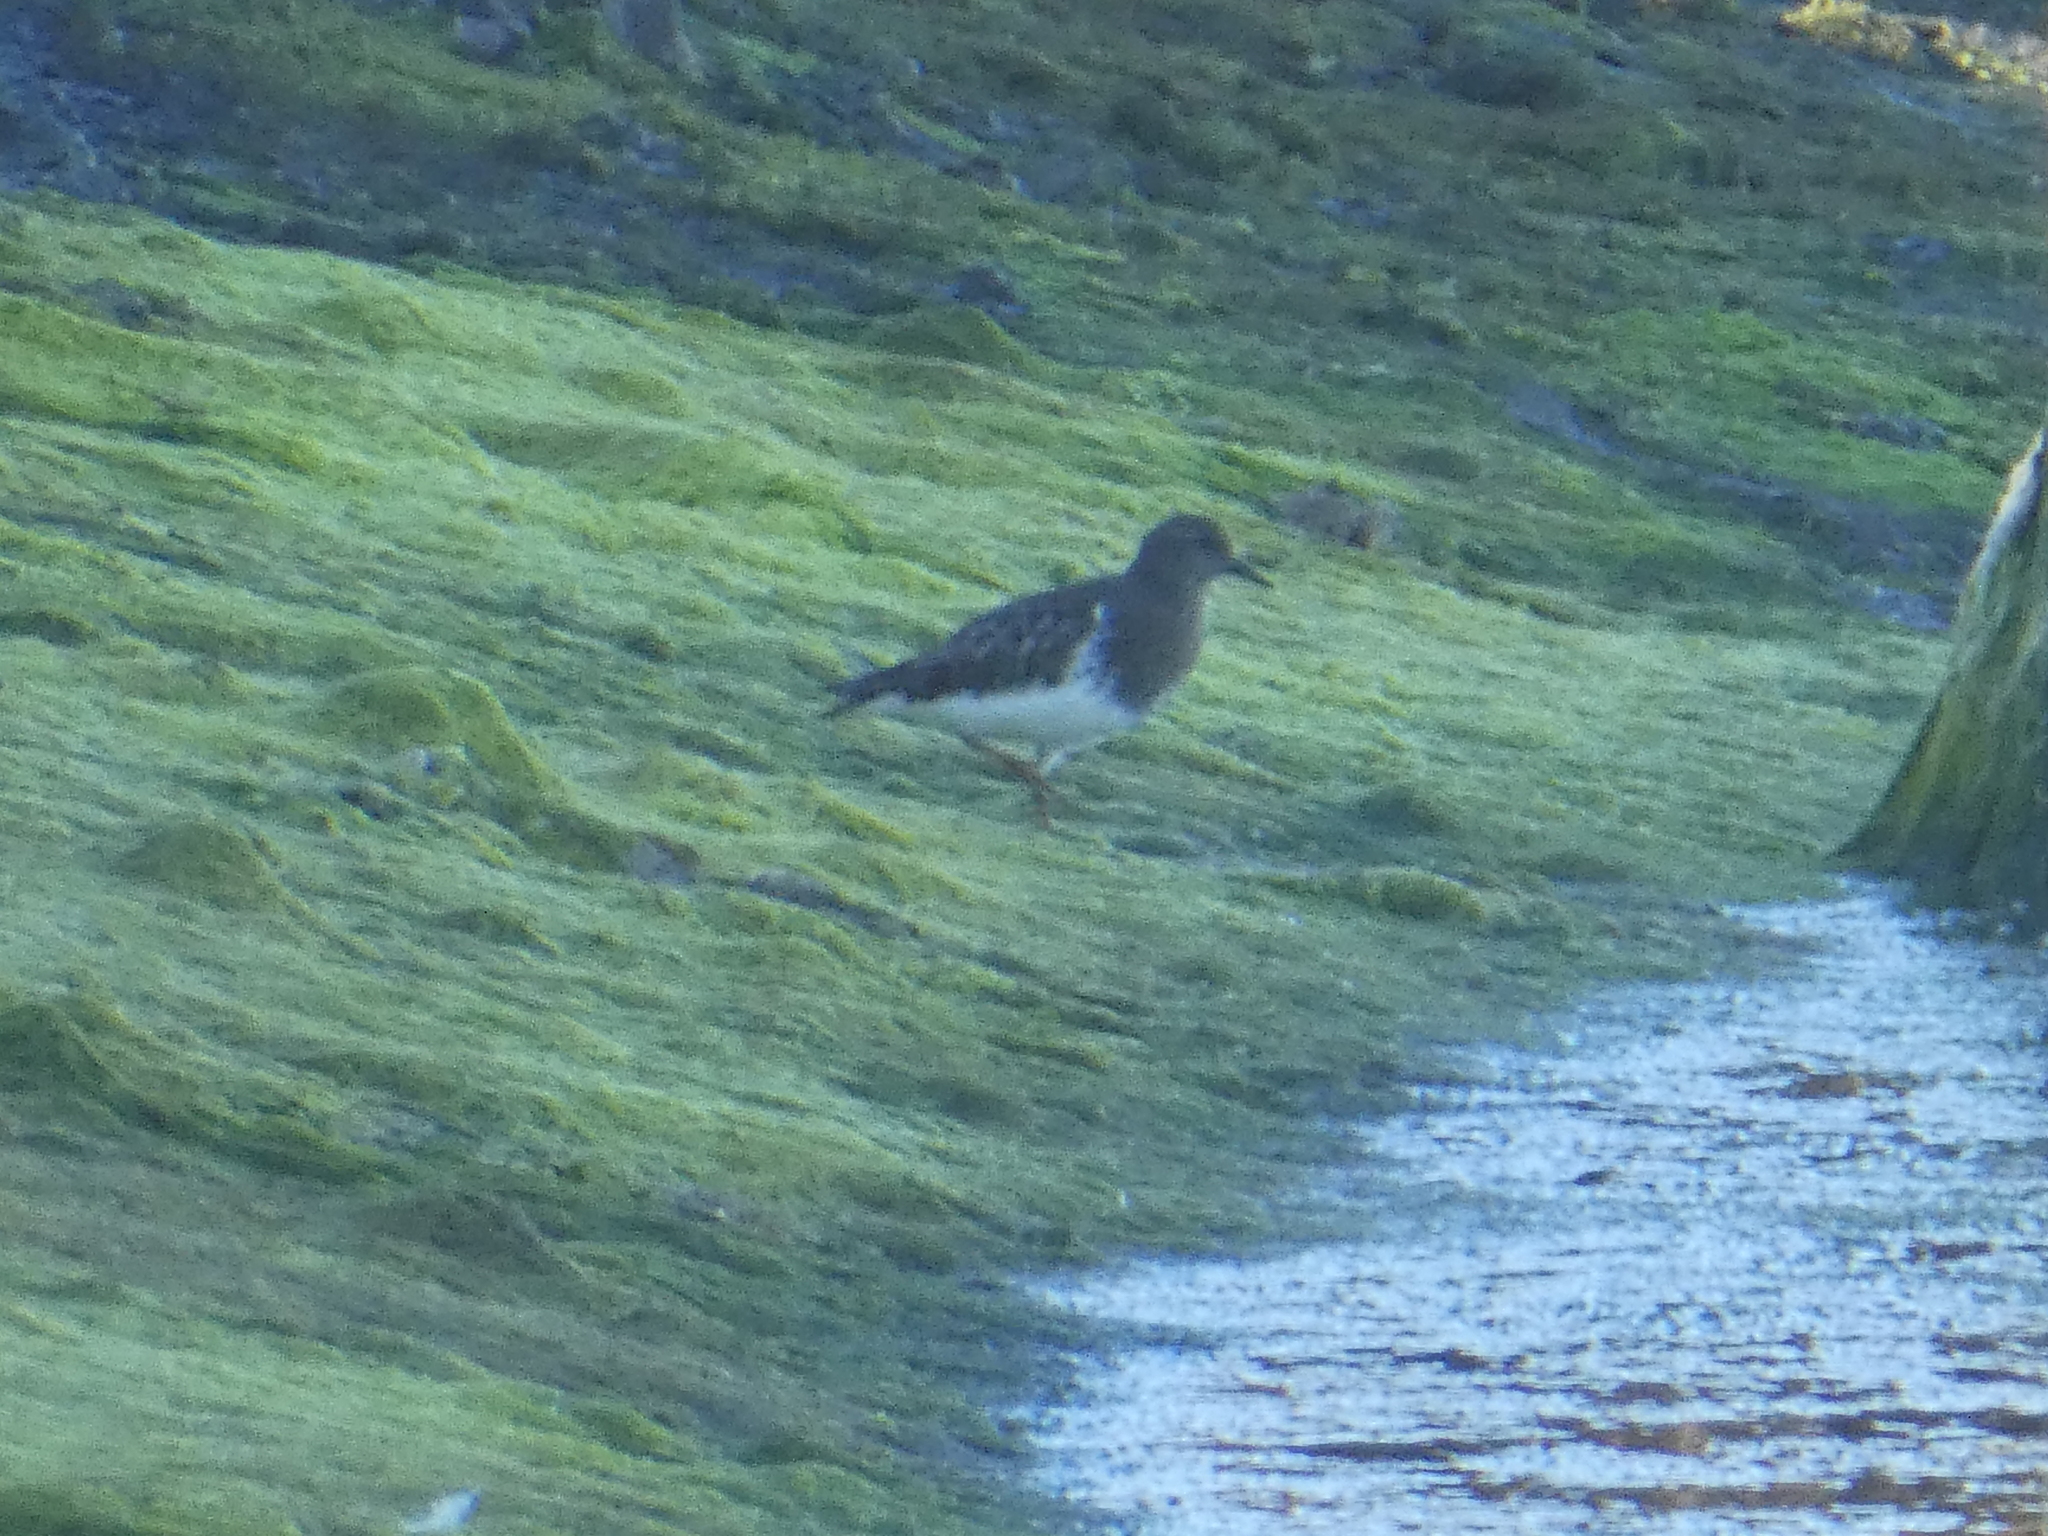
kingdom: Animalia
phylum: Chordata
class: Aves
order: Charadriiformes
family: Scolopacidae
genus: Arenaria
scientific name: Arenaria melanocephala
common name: Black turnstone
